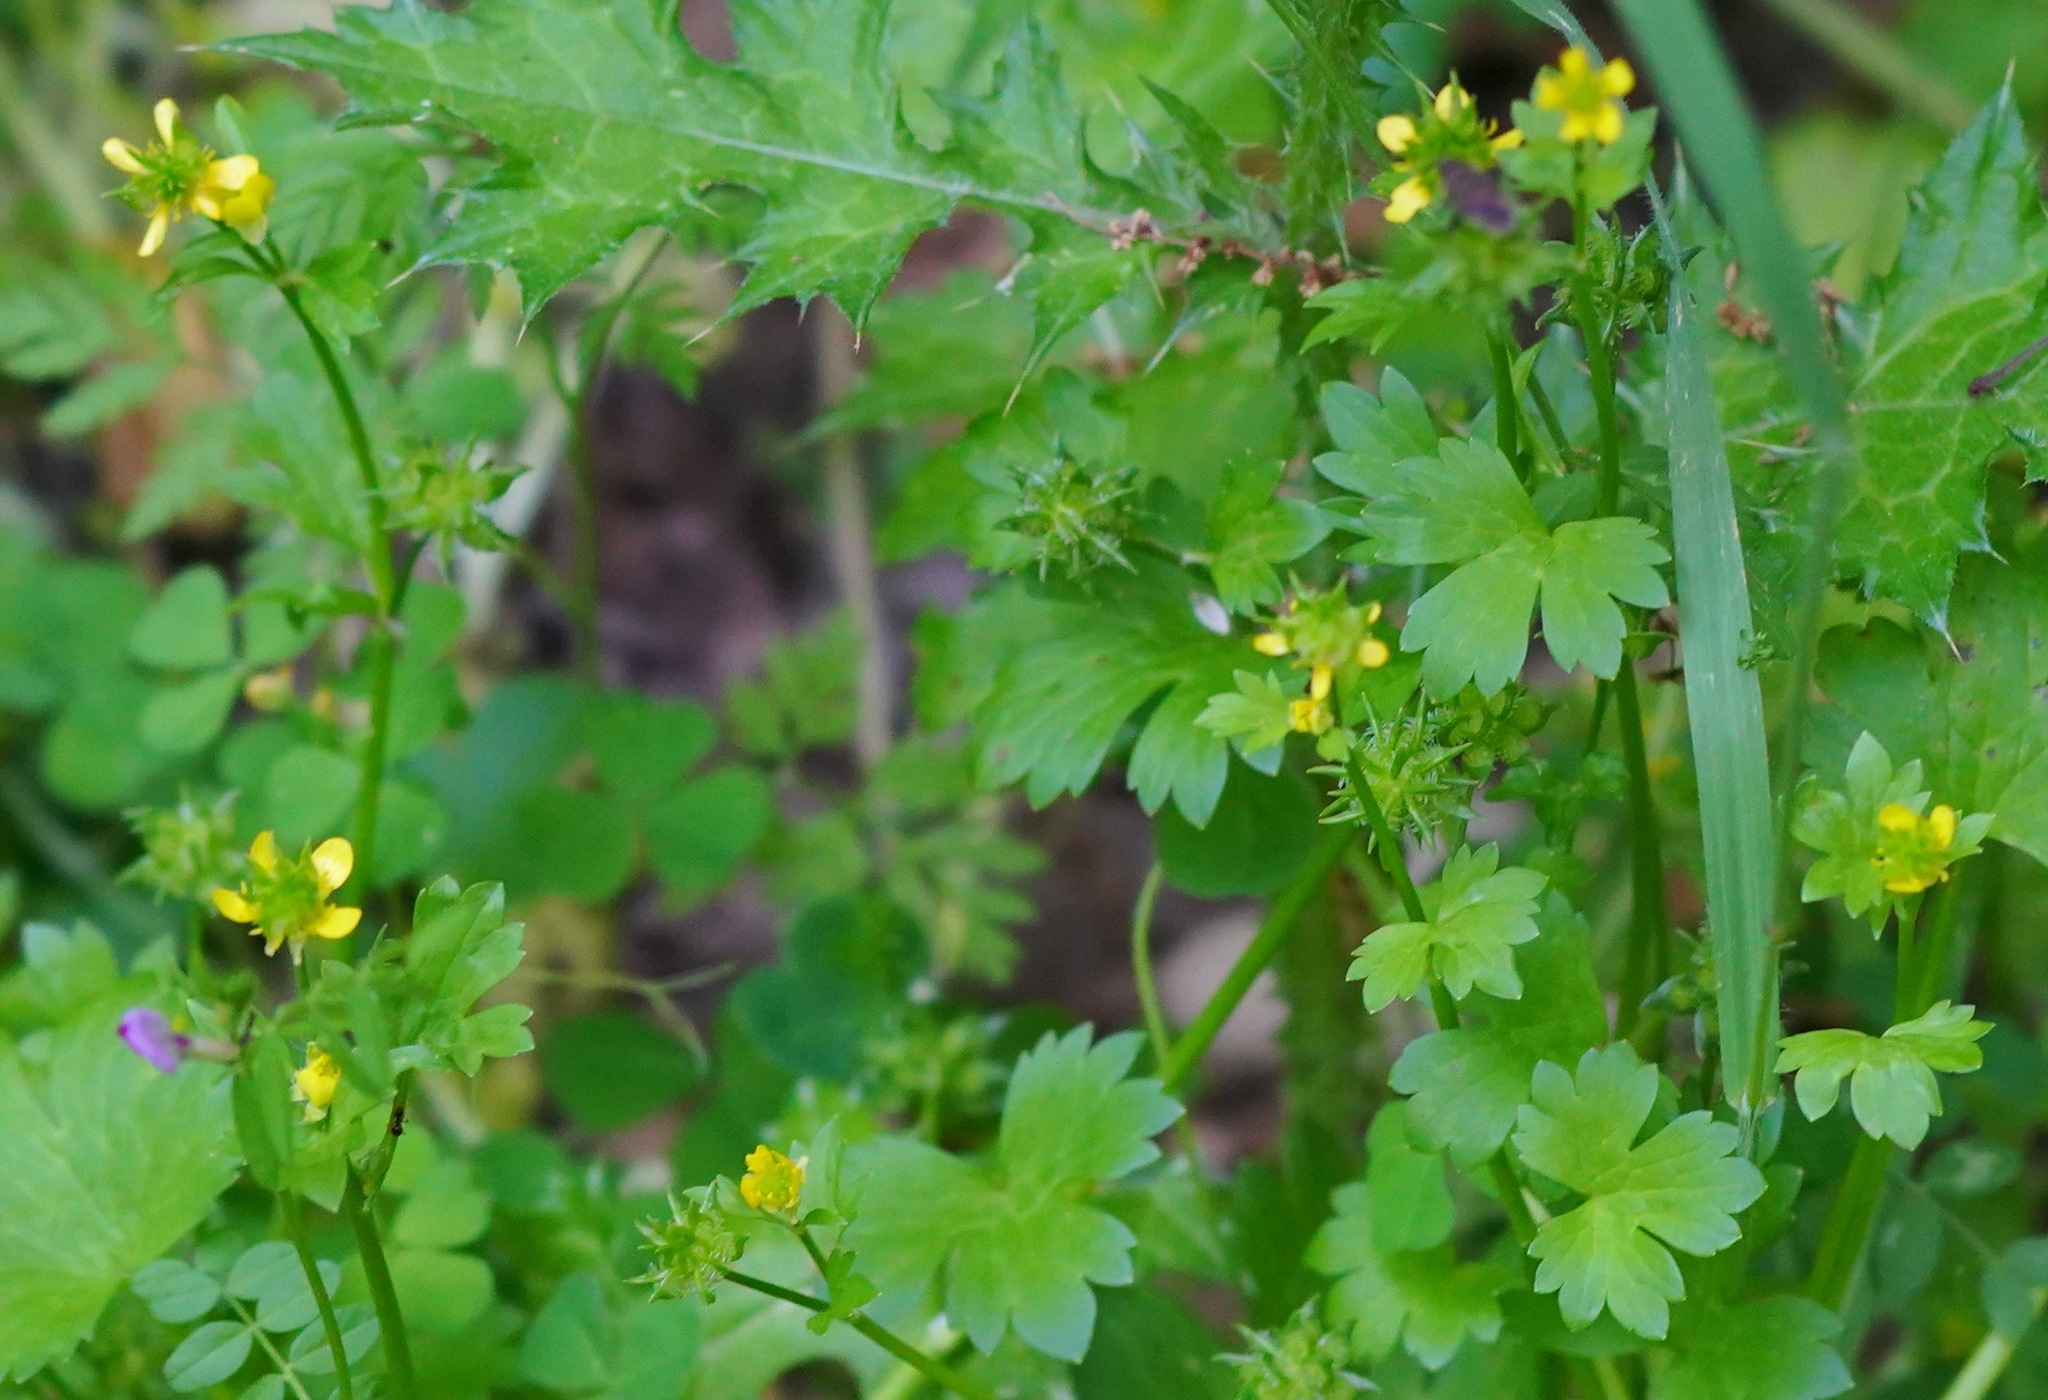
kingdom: Plantae
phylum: Tracheophyta
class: Magnoliopsida
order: Ranunculales
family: Ranunculaceae
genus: Ranunculus
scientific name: Ranunculus muricatus
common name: Rough-fruited buttercup
